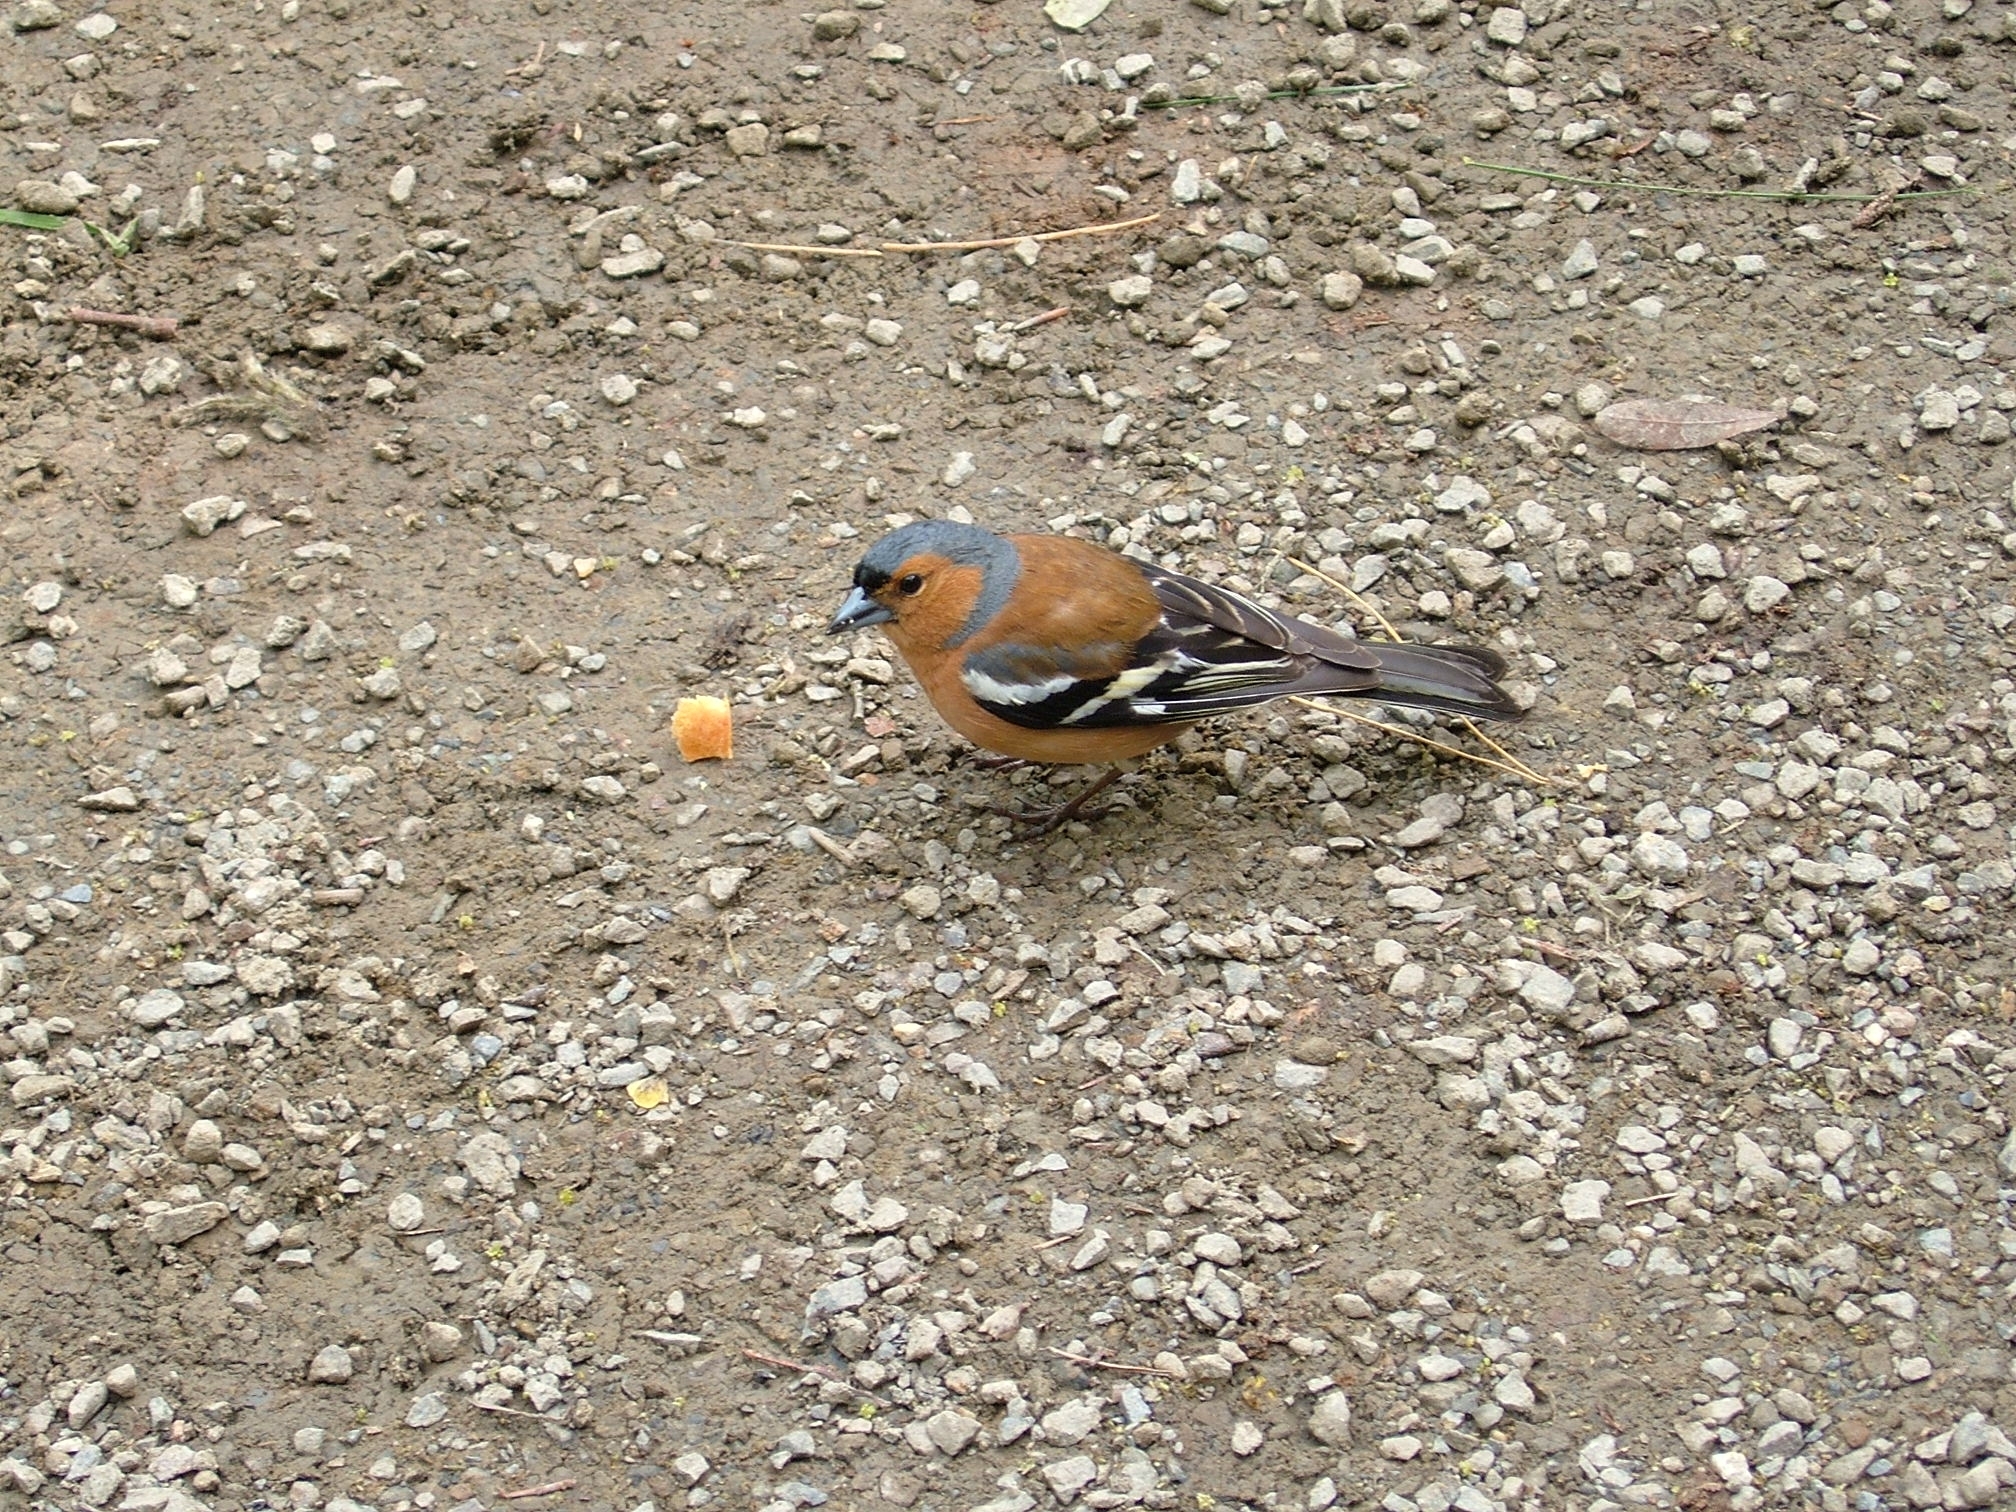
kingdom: Animalia
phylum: Chordata
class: Aves
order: Passeriformes
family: Fringillidae
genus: Fringilla
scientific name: Fringilla coelebs
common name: Common chaffinch
